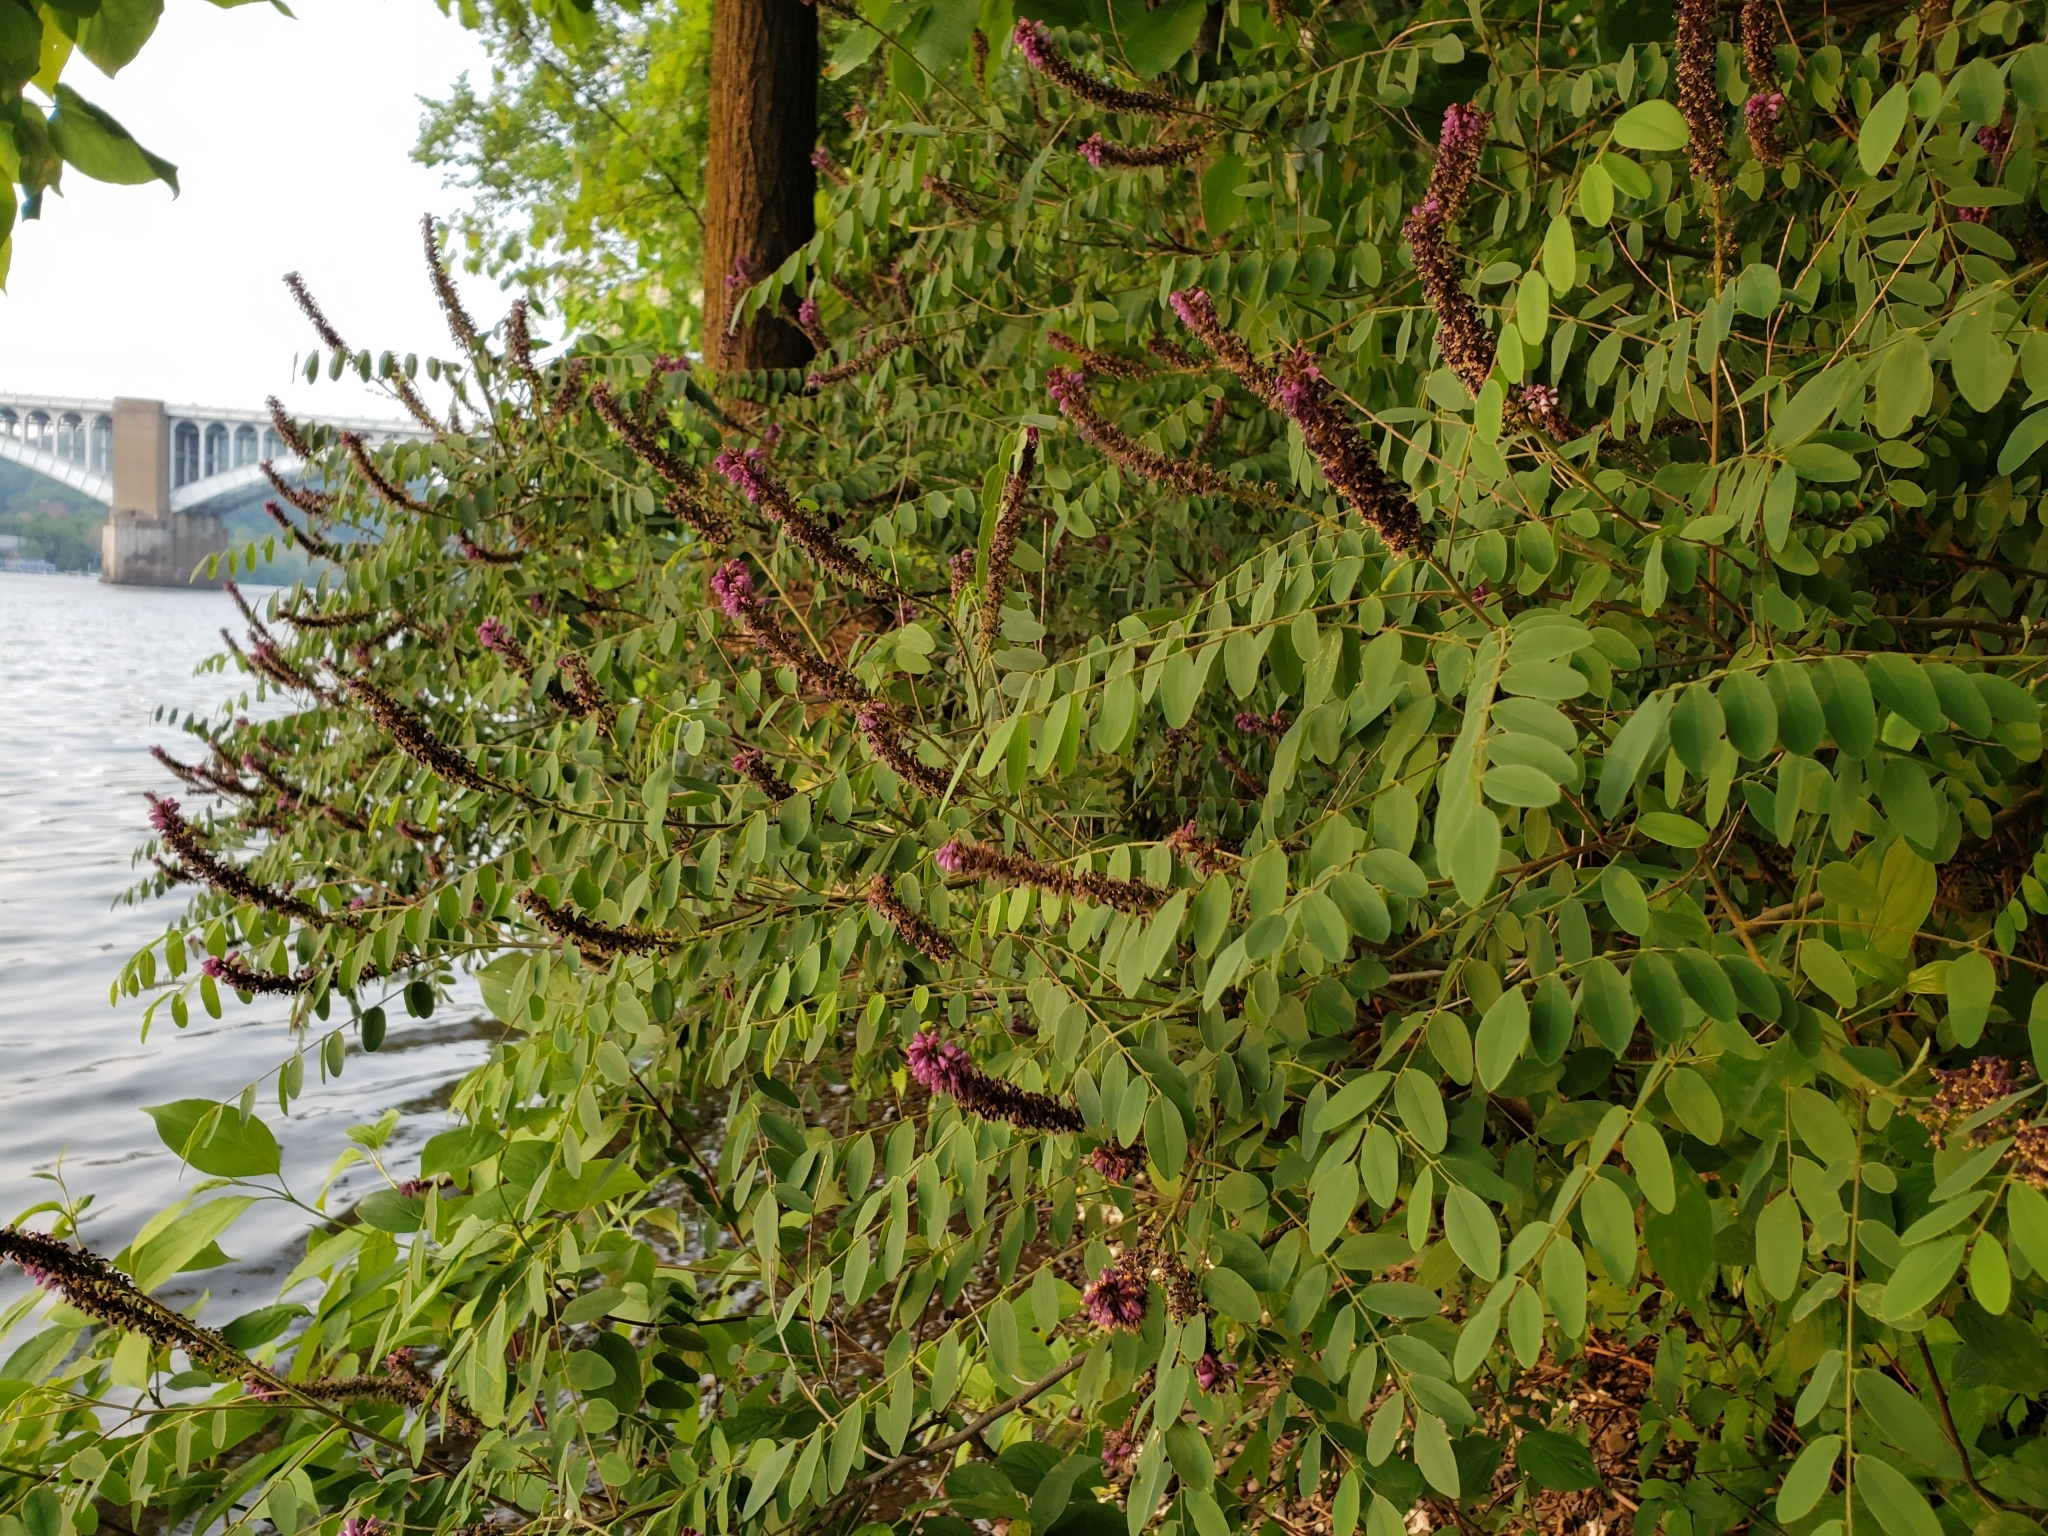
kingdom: Plantae
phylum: Tracheophyta
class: Magnoliopsida
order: Fabales
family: Fabaceae
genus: Amorpha
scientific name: Amorpha fruticosa
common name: False indigo
